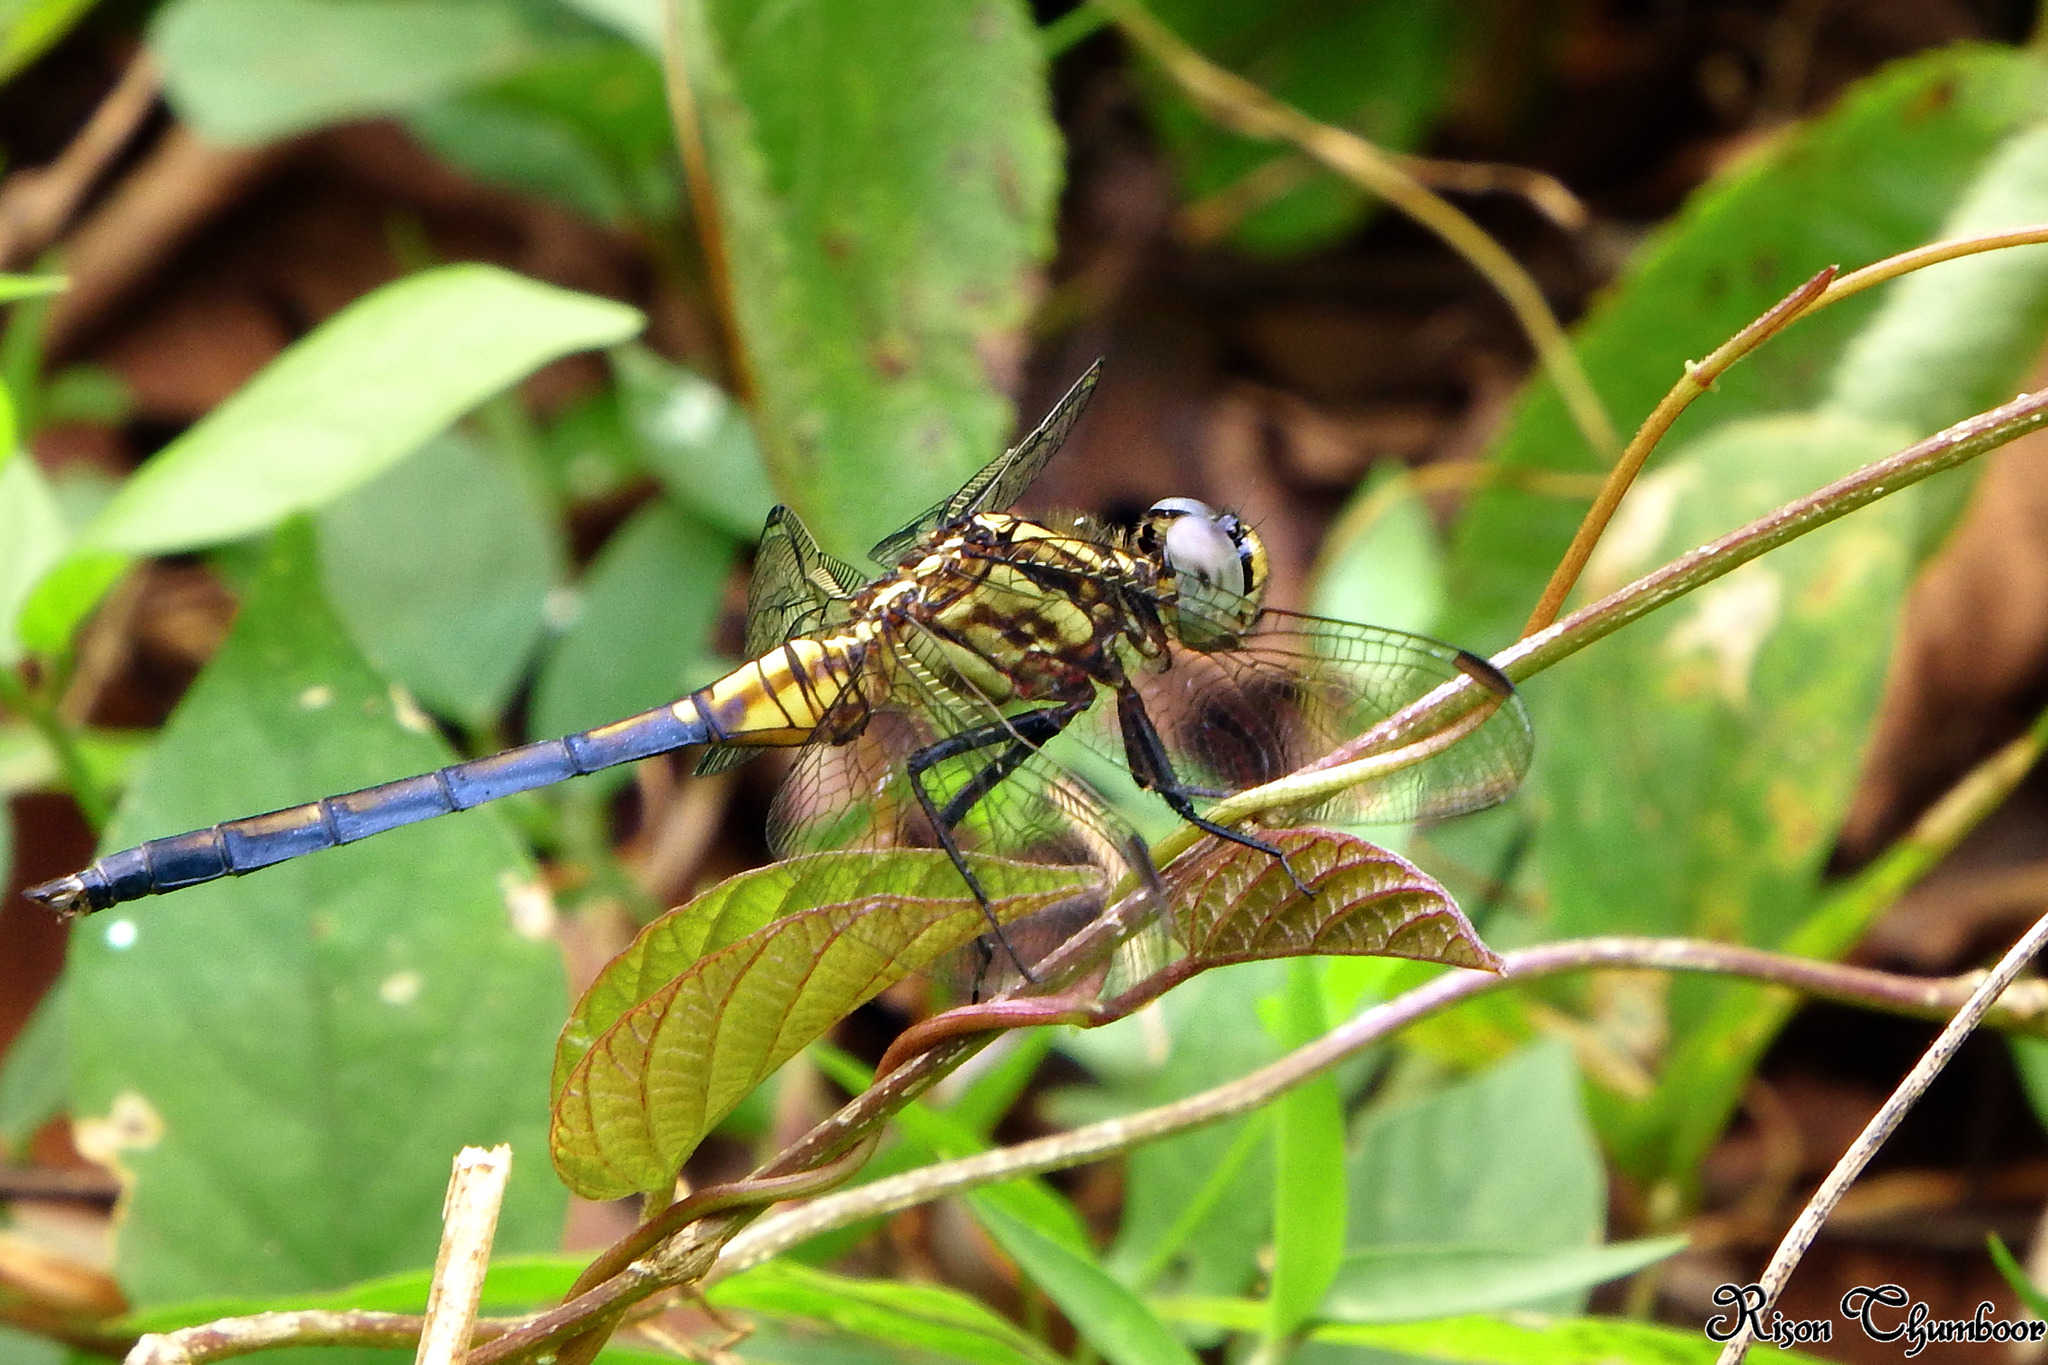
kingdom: Animalia
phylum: Arthropoda
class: Insecta
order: Odonata
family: Libellulidae
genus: Orthetrum
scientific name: Orthetrum luzonicum
